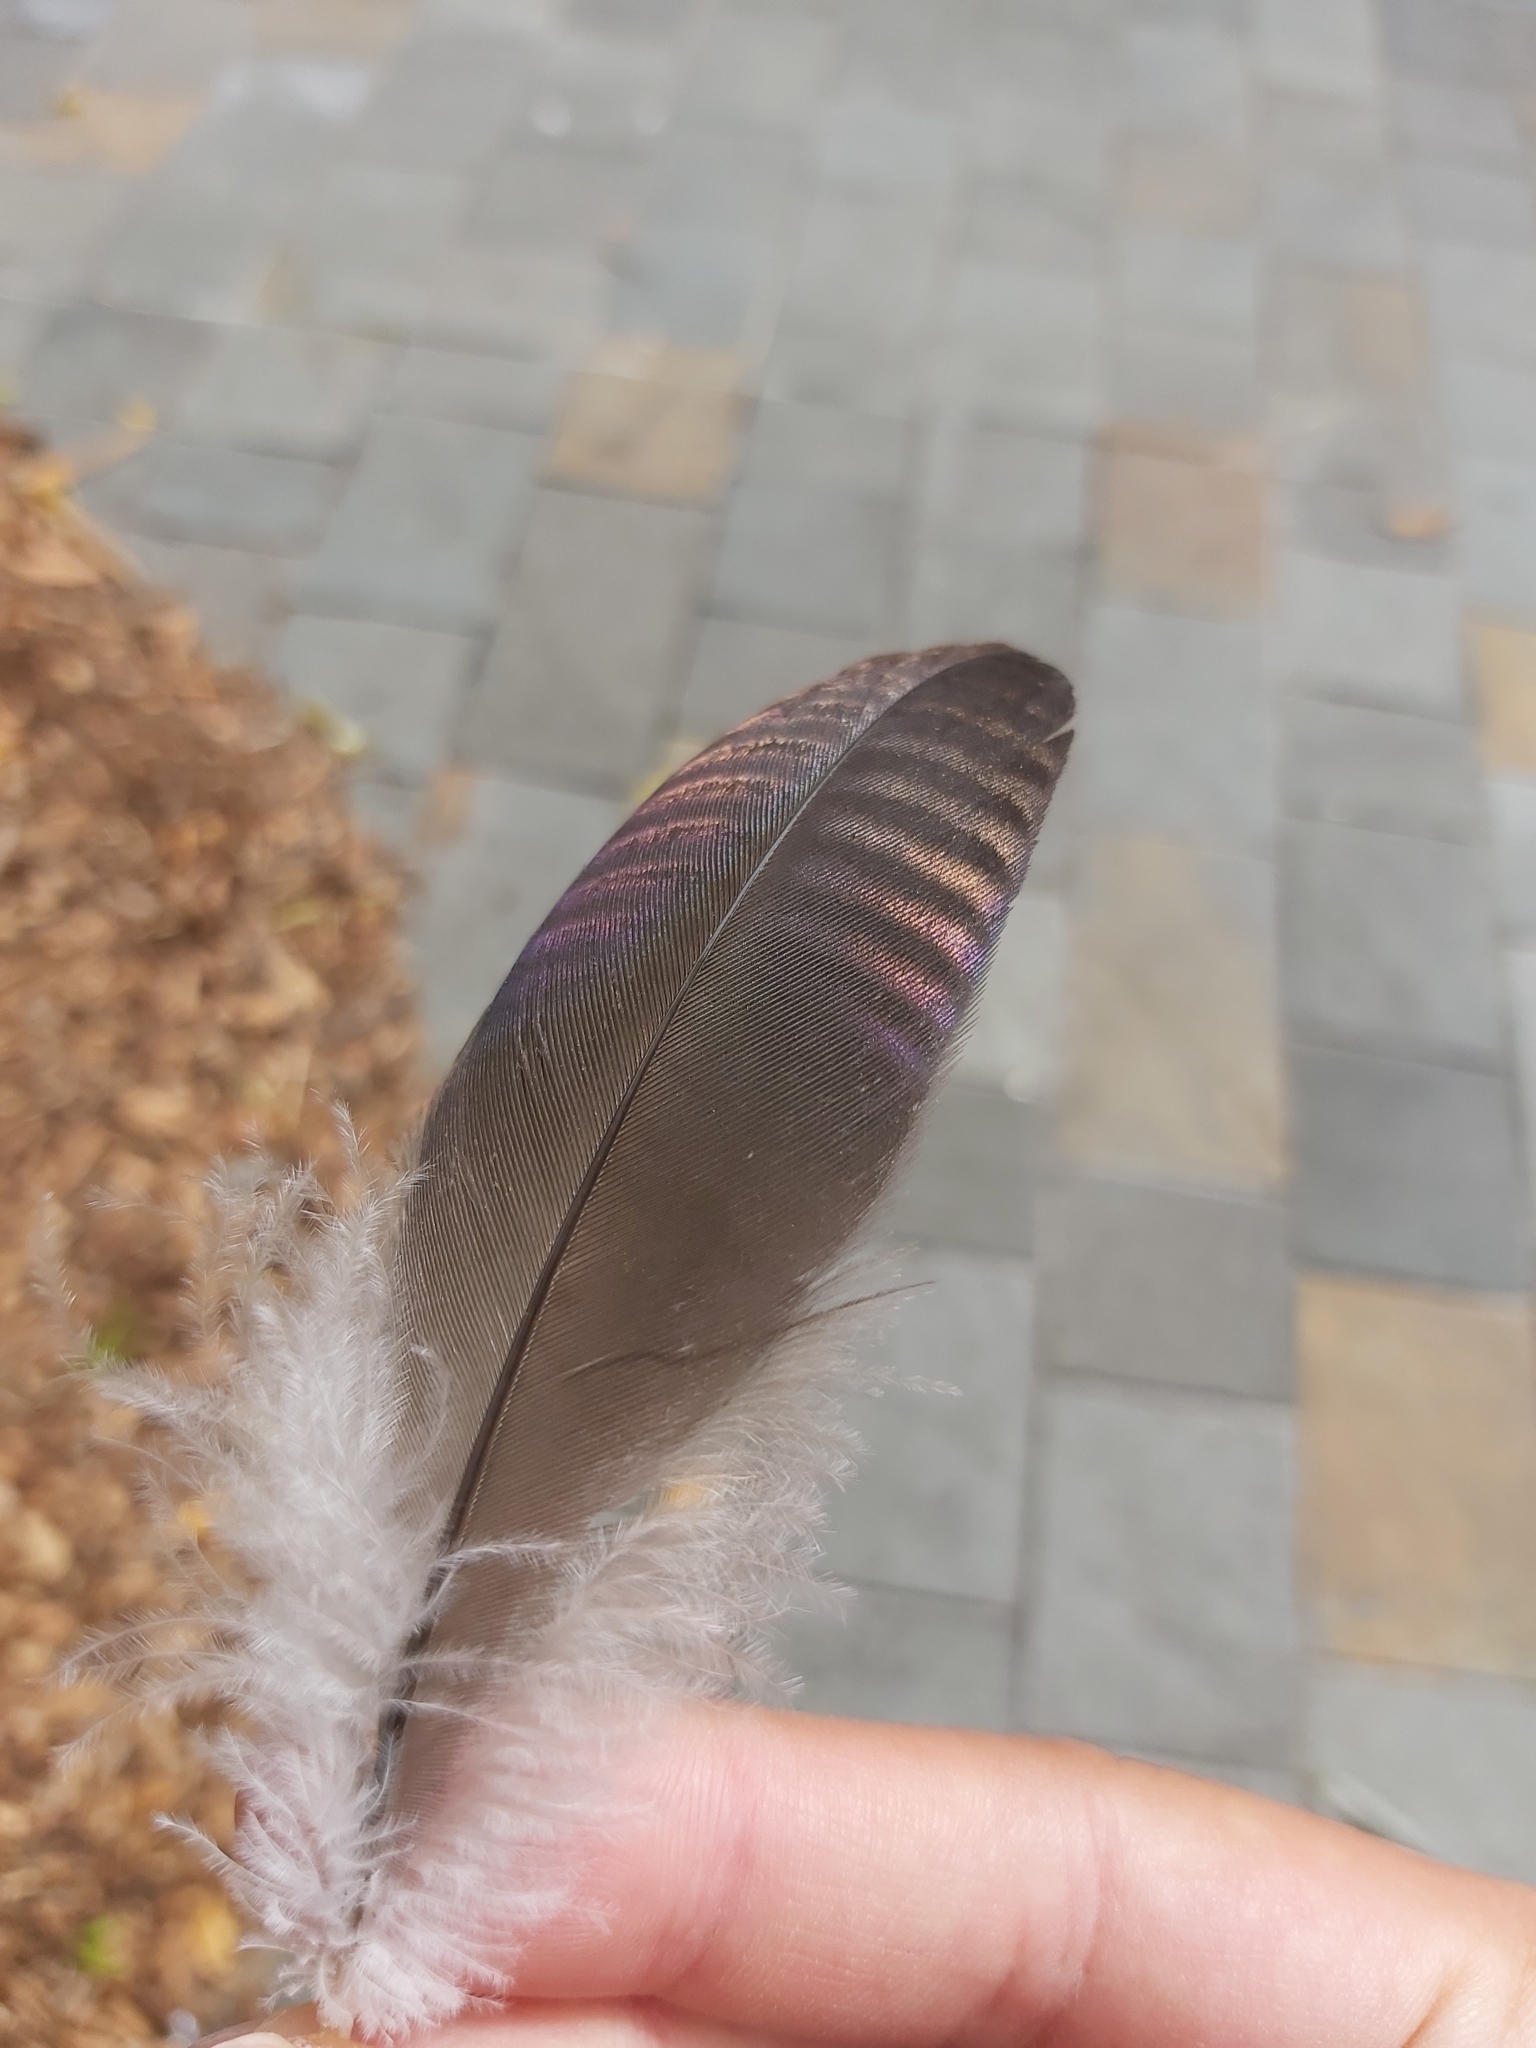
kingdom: Animalia
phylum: Chordata
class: Aves
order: Pelecaniformes
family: Threskiornithidae
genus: Threskiornis
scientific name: Threskiornis spinicollis
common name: Straw-necked ibis
